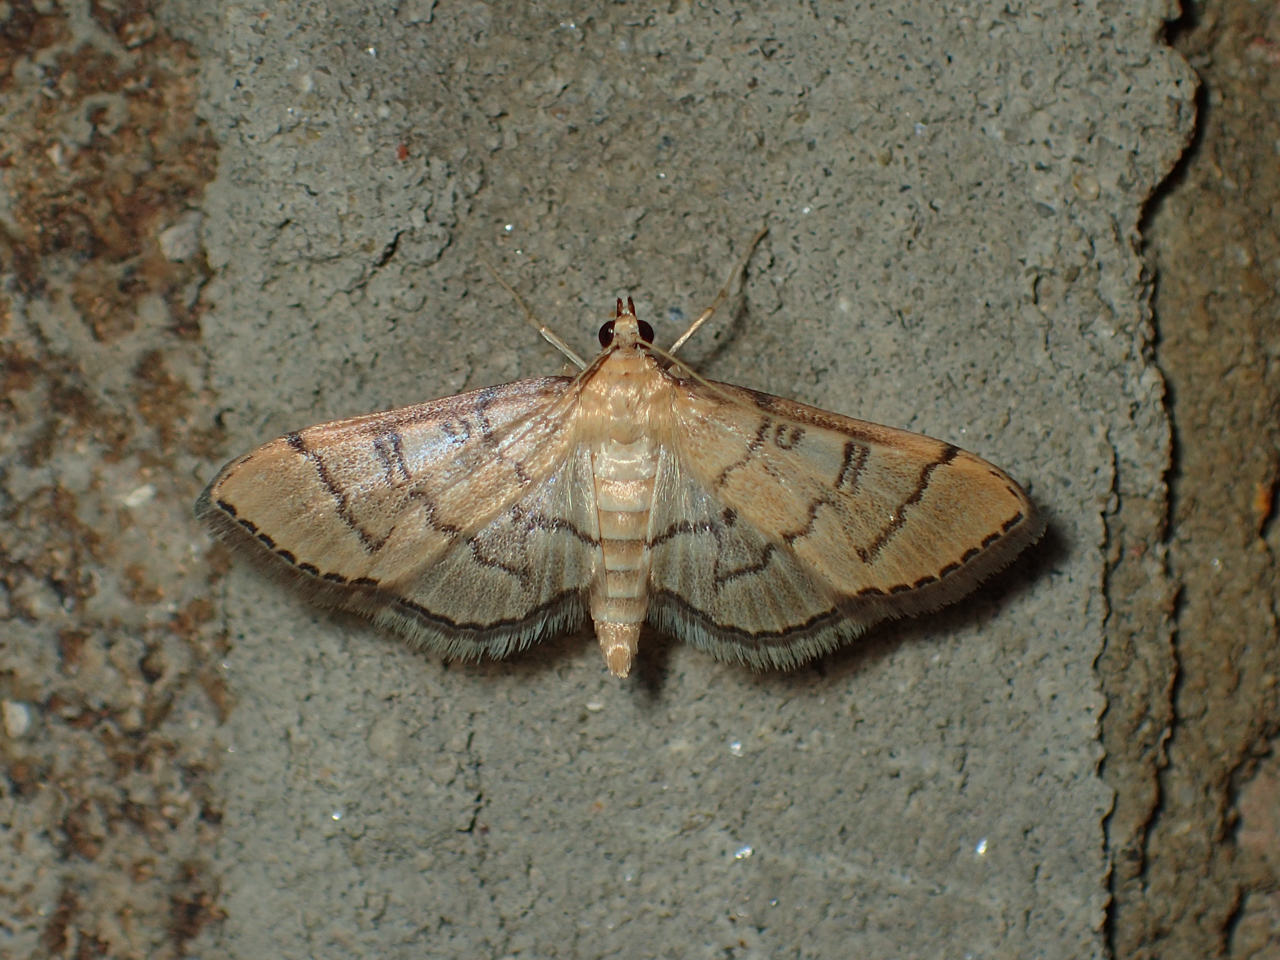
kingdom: Animalia
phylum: Arthropoda
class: Insecta
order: Lepidoptera
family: Crambidae
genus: Lamprosema
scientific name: Lamprosema Blepharomastix ranalis
